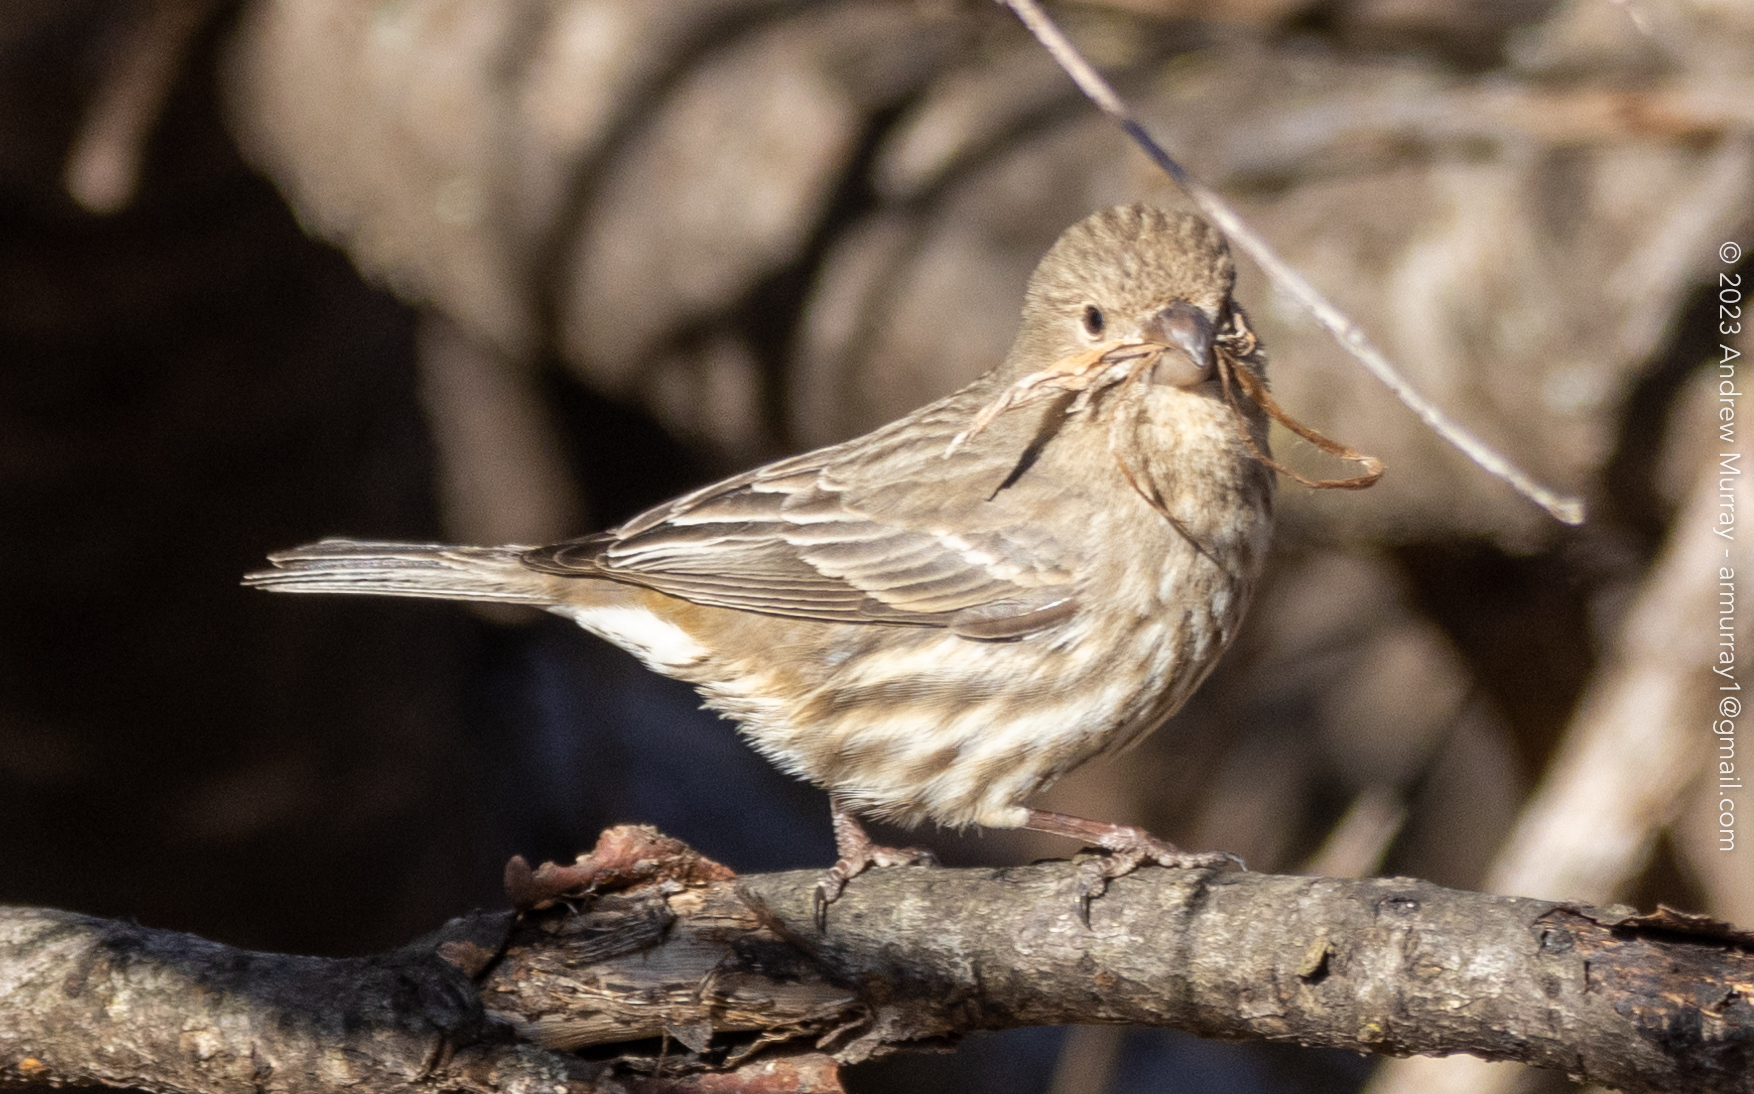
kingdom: Animalia
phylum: Chordata
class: Aves
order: Passeriformes
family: Fringillidae
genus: Haemorhous
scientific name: Haemorhous mexicanus
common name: House finch
